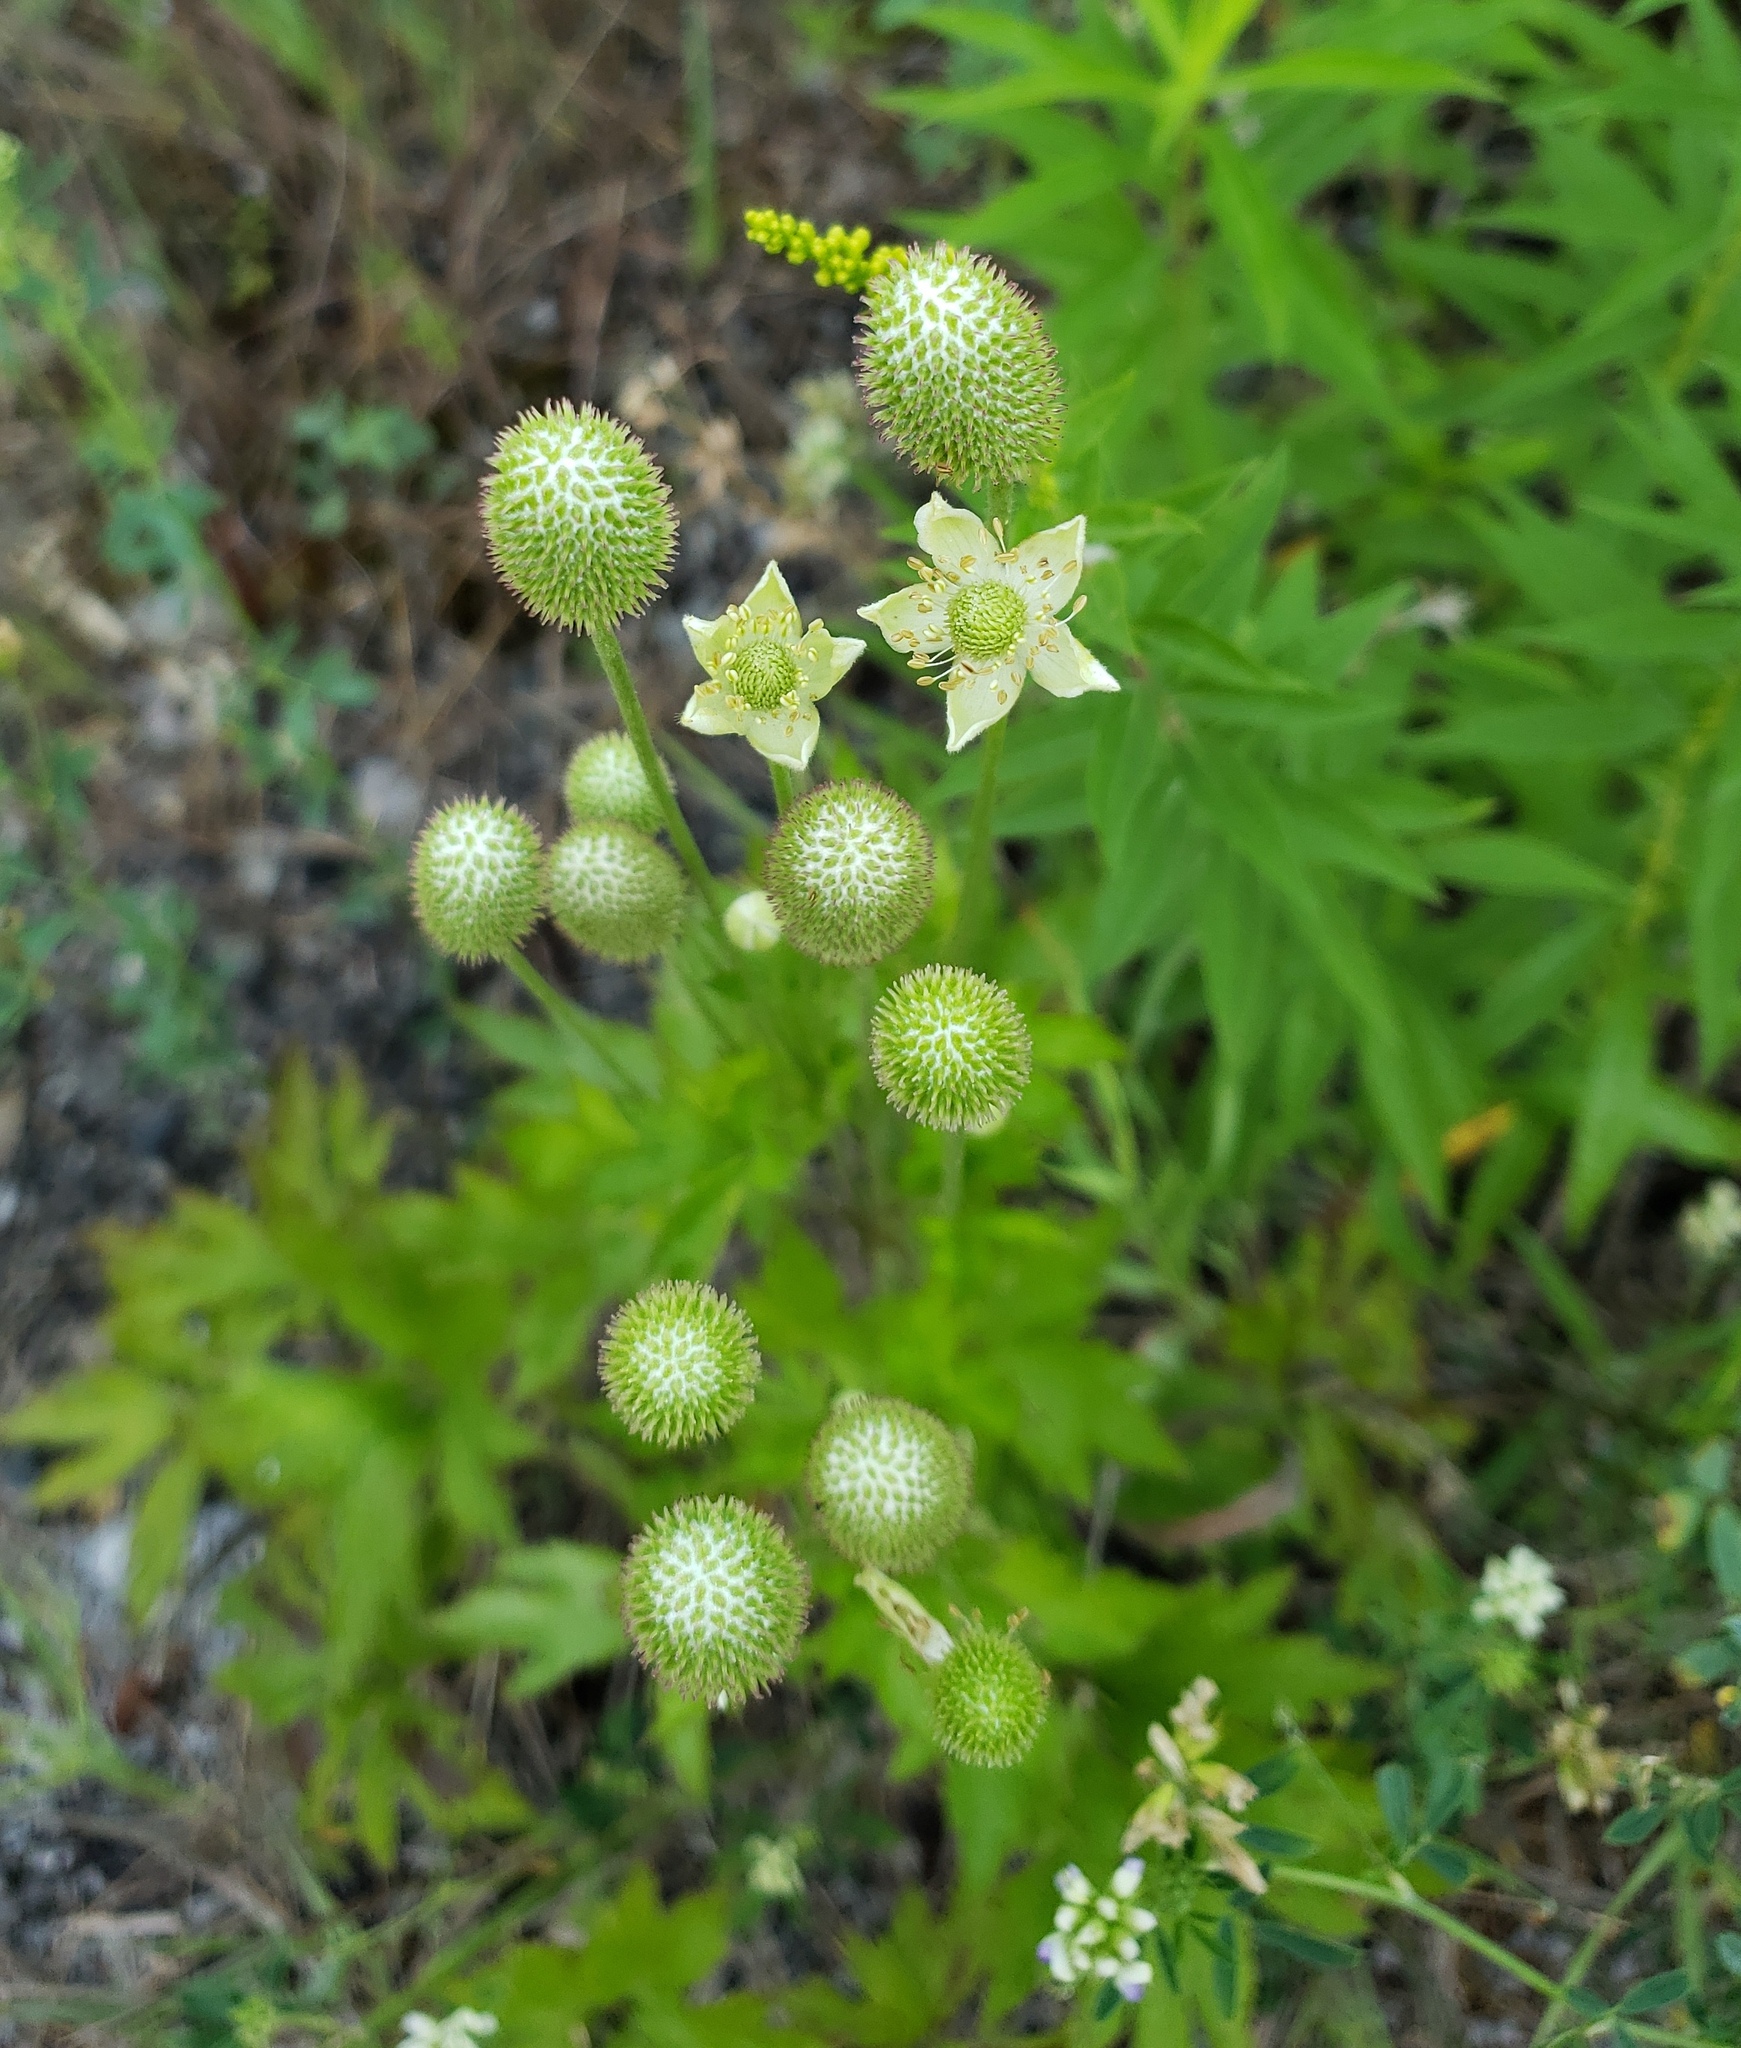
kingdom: Plantae
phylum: Tracheophyta
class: Magnoliopsida
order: Ranunculales
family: Ranunculaceae
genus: Anemone
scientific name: Anemone virginiana
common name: Tall anemone
